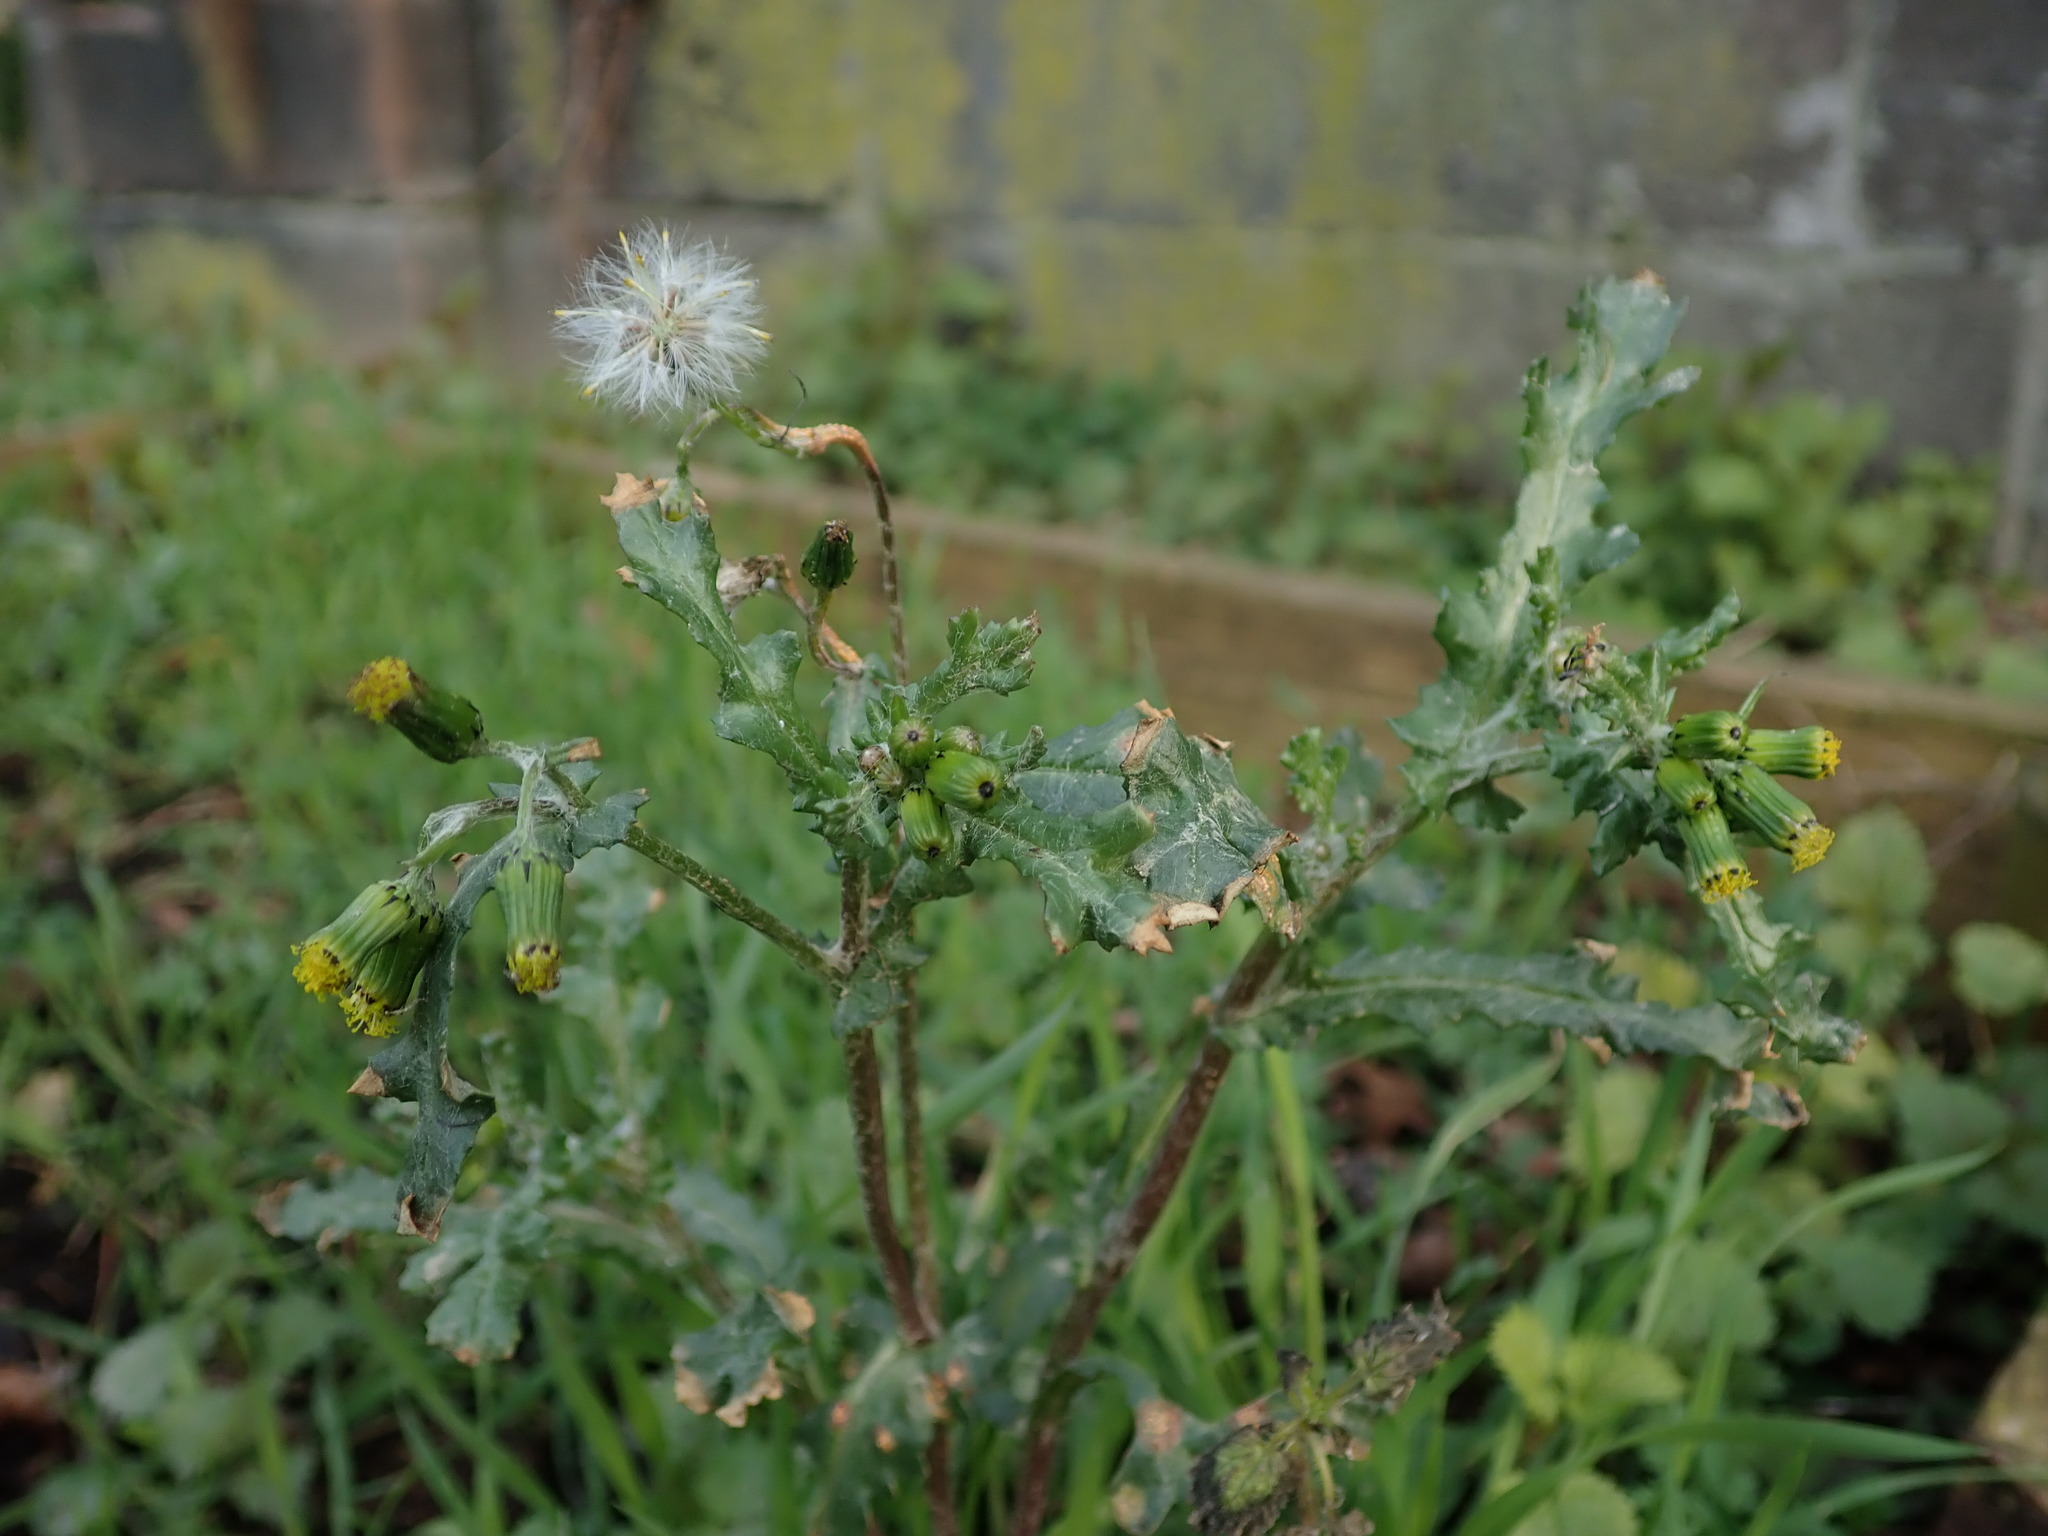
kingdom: Plantae
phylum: Tracheophyta
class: Magnoliopsida
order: Asterales
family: Asteraceae
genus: Senecio
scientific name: Senecio vulgaris
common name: Old-man-in-the-spring
